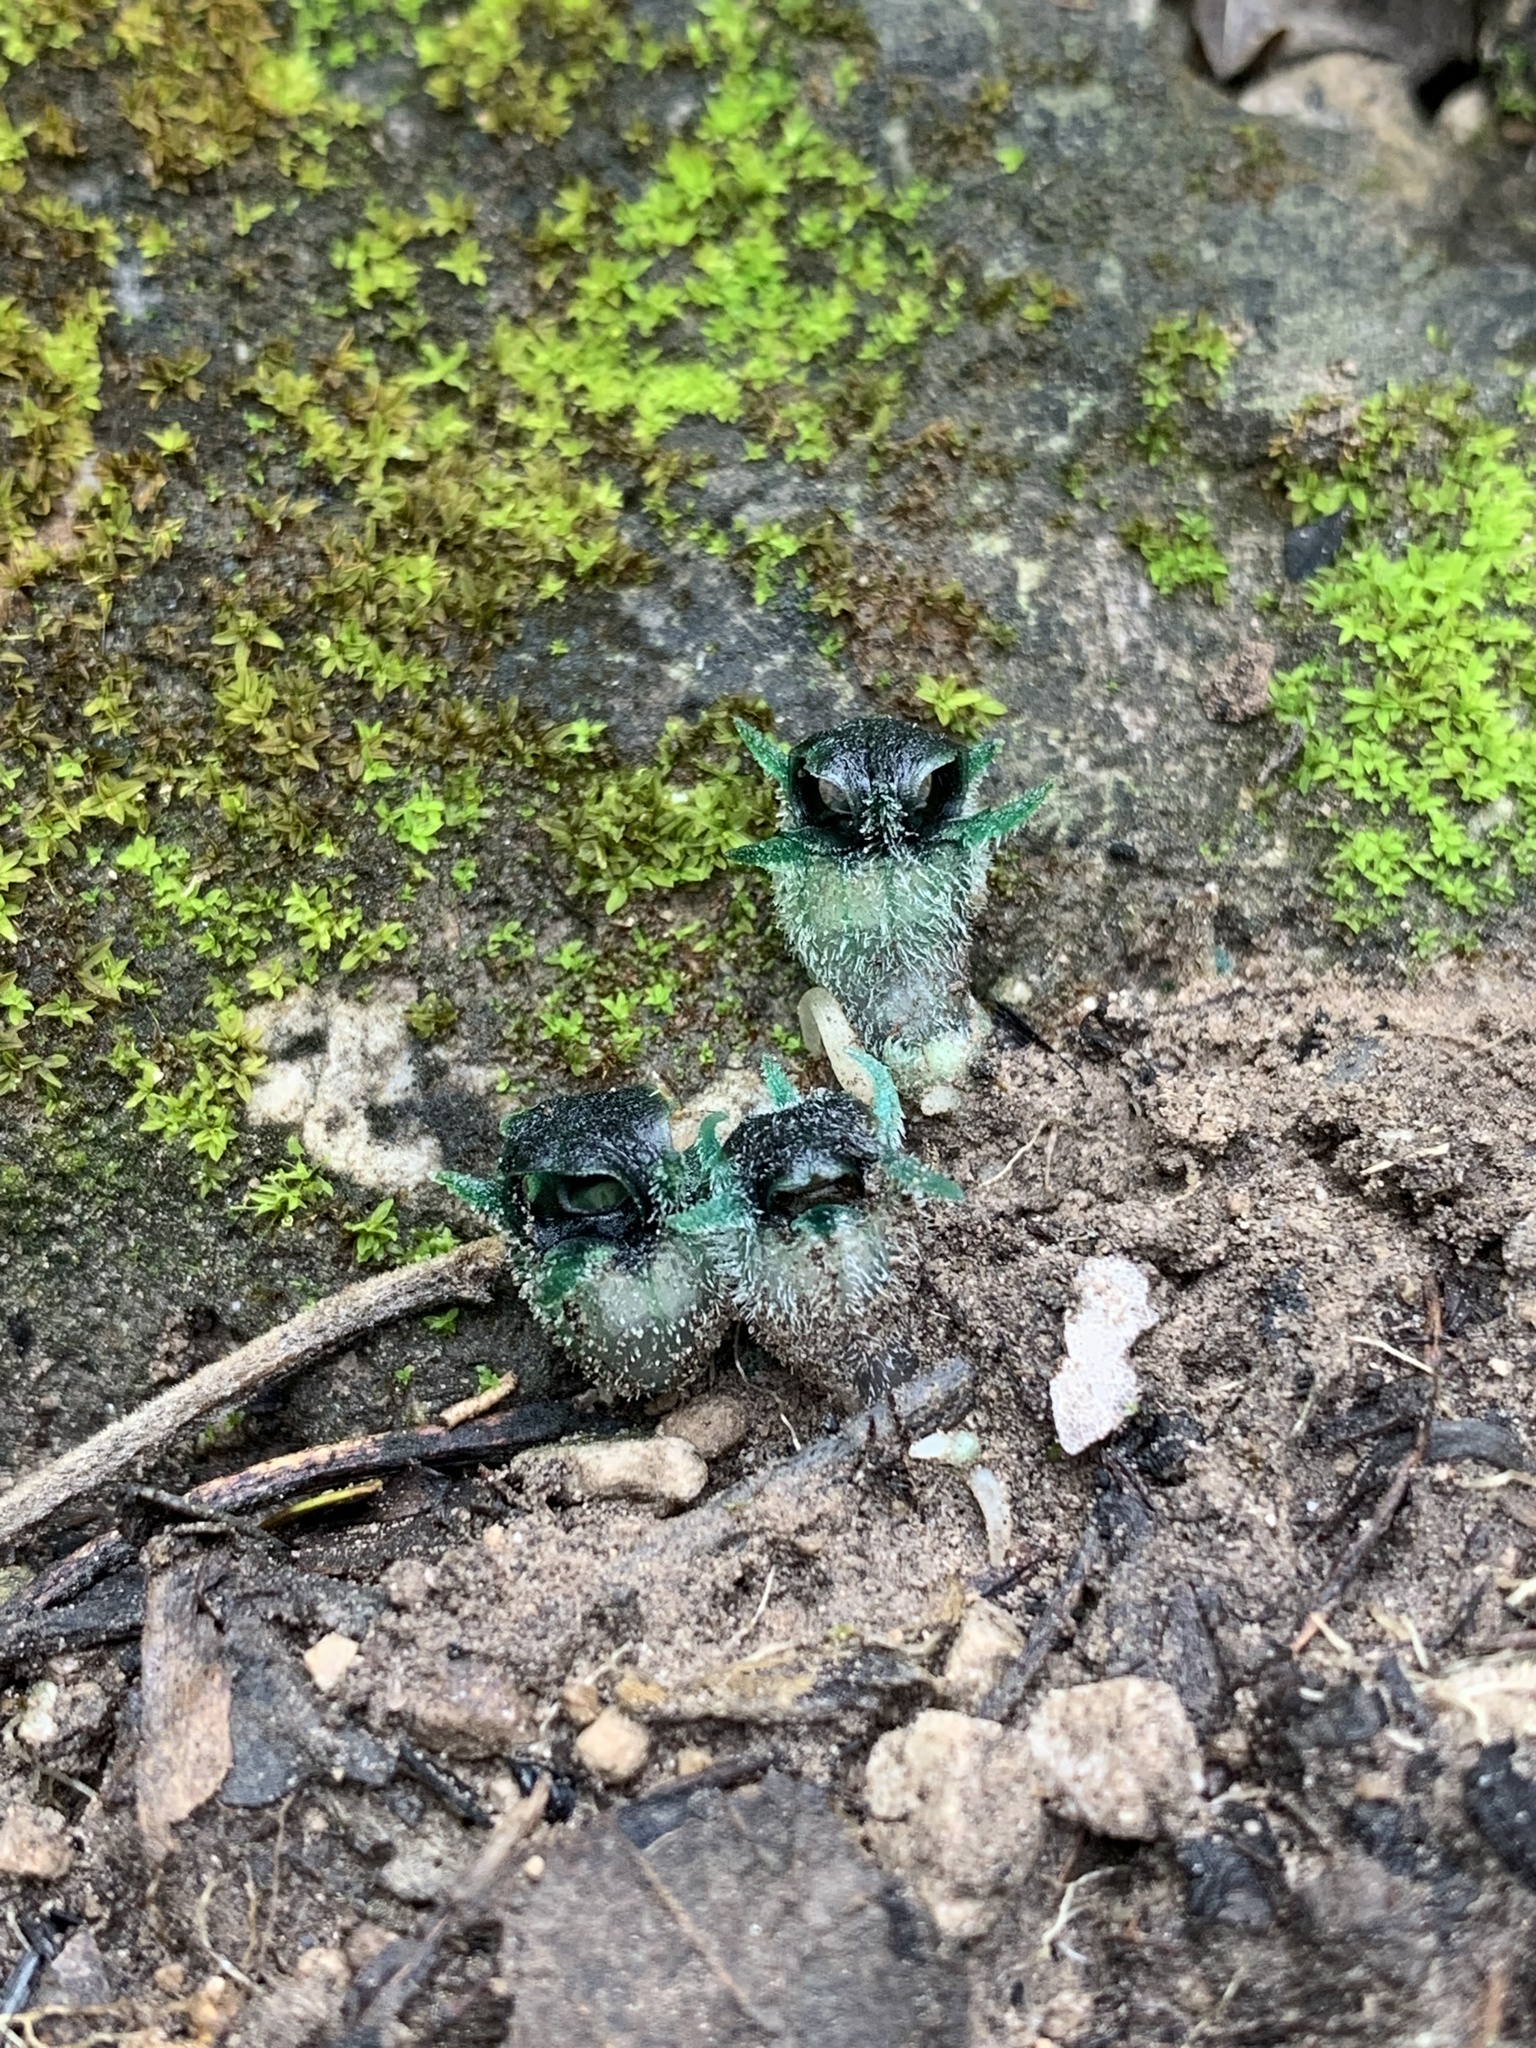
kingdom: Plantae
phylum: Tracheophyta
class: Liliopsida
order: Dioscoreales
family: Burmanniaceae
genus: Thismia
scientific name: Thismia thaithongiana
